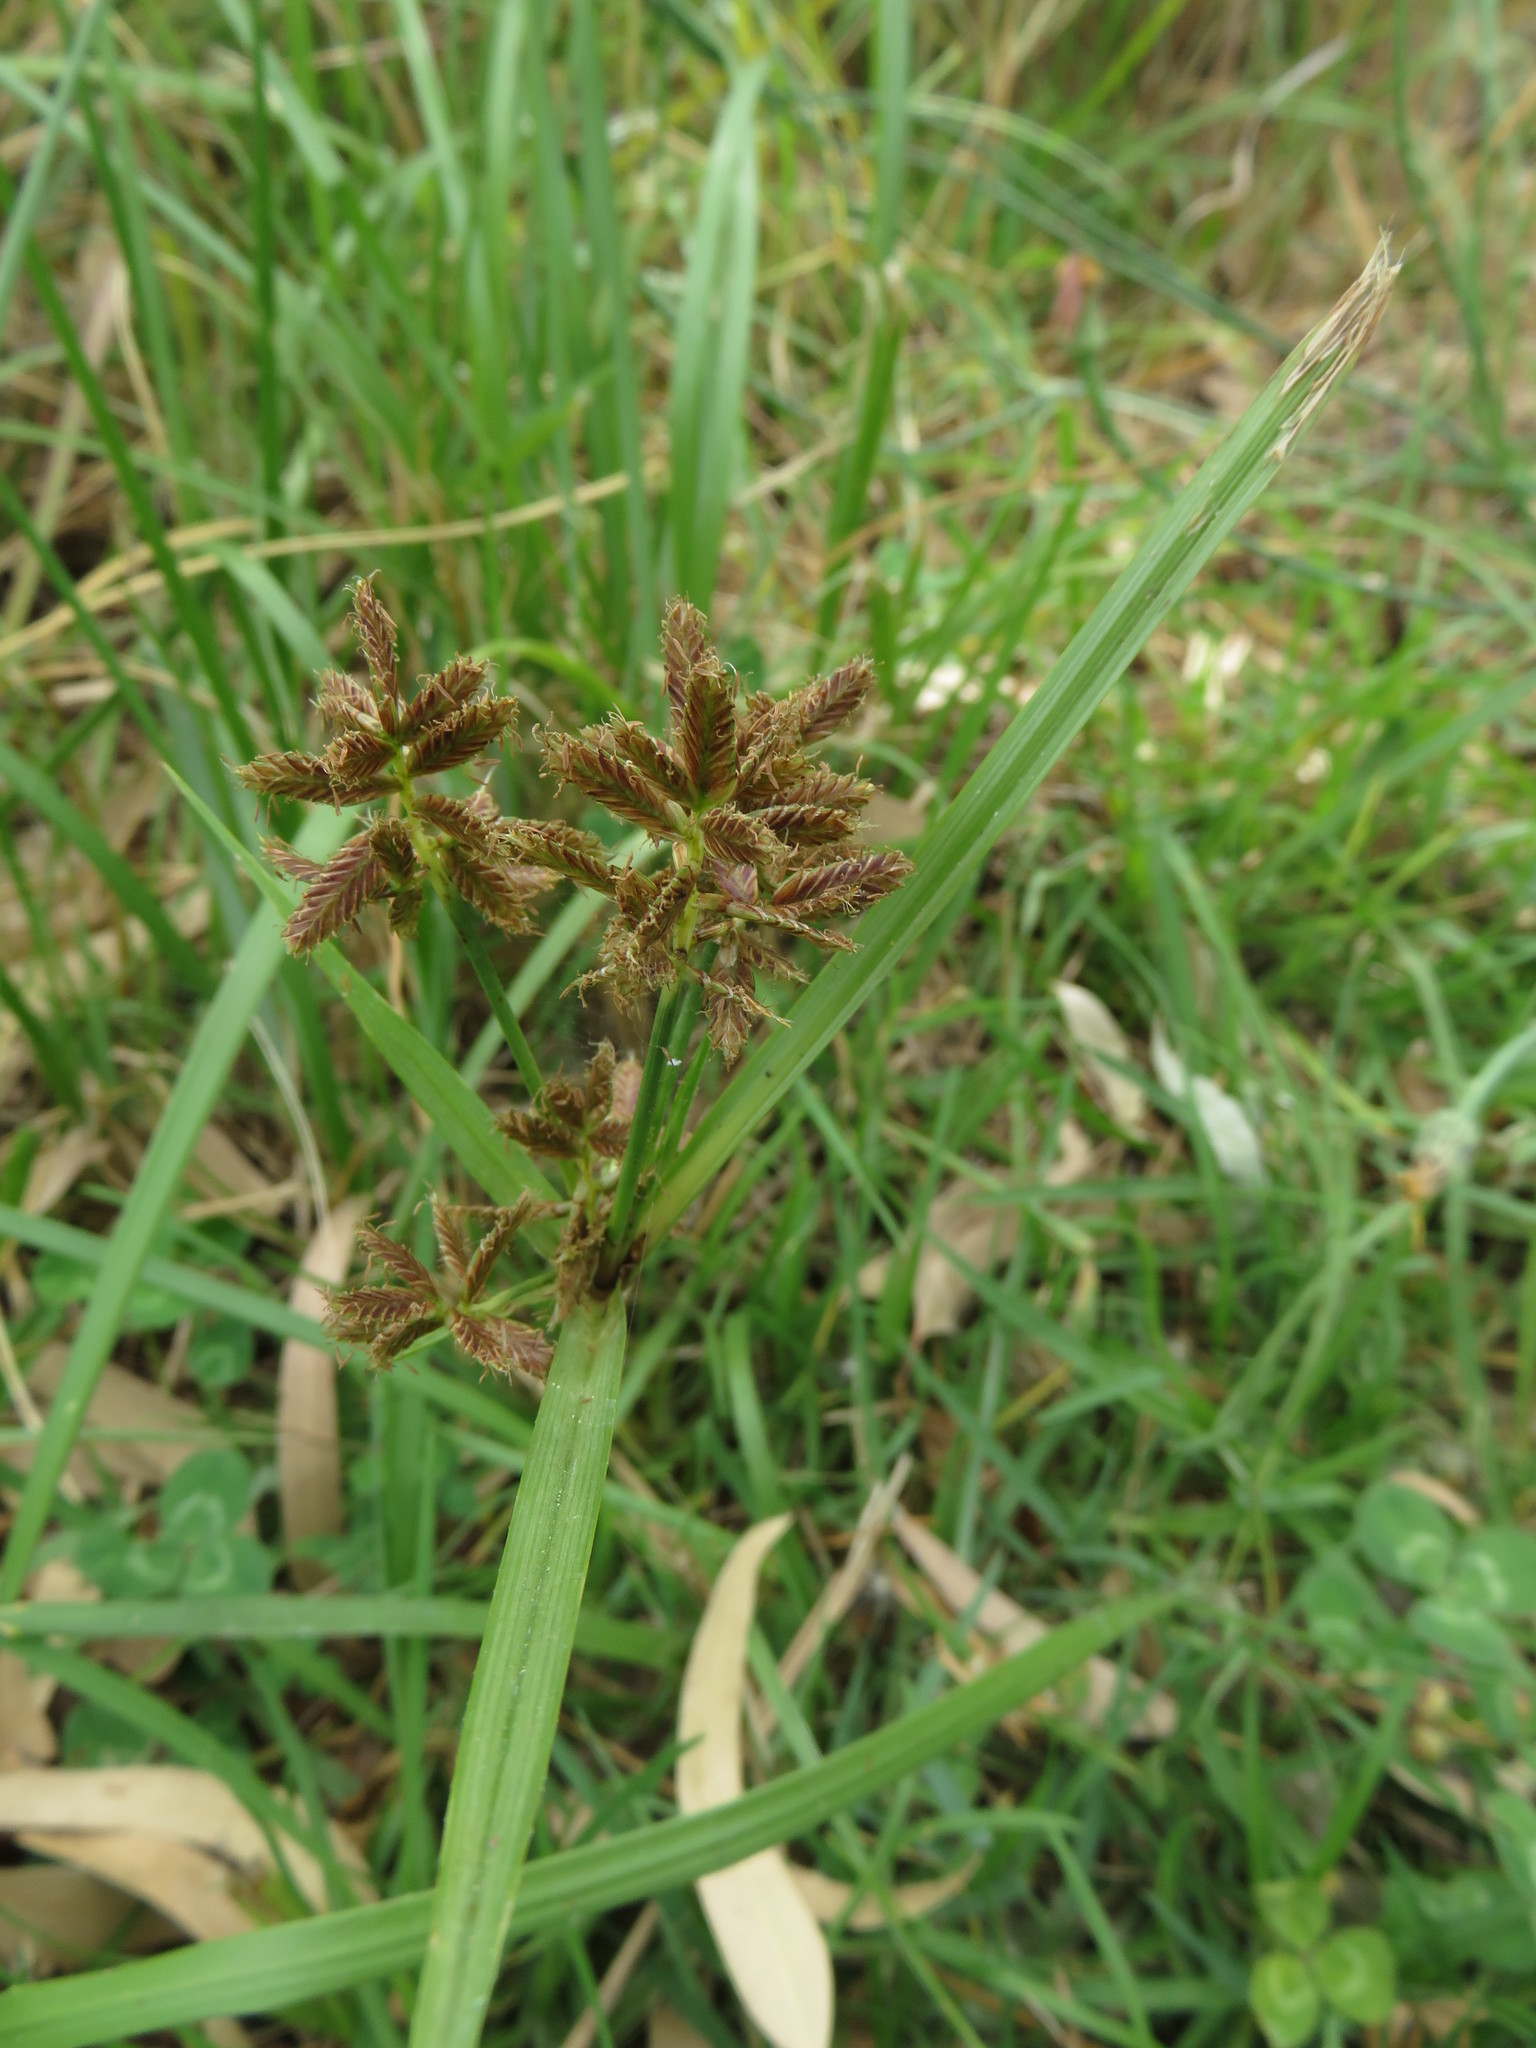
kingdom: Plantae
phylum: Tracheophyta
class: Liliopsida
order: Poales
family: Cyperaceae
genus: Cyperus
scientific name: Cyperus nitidus
